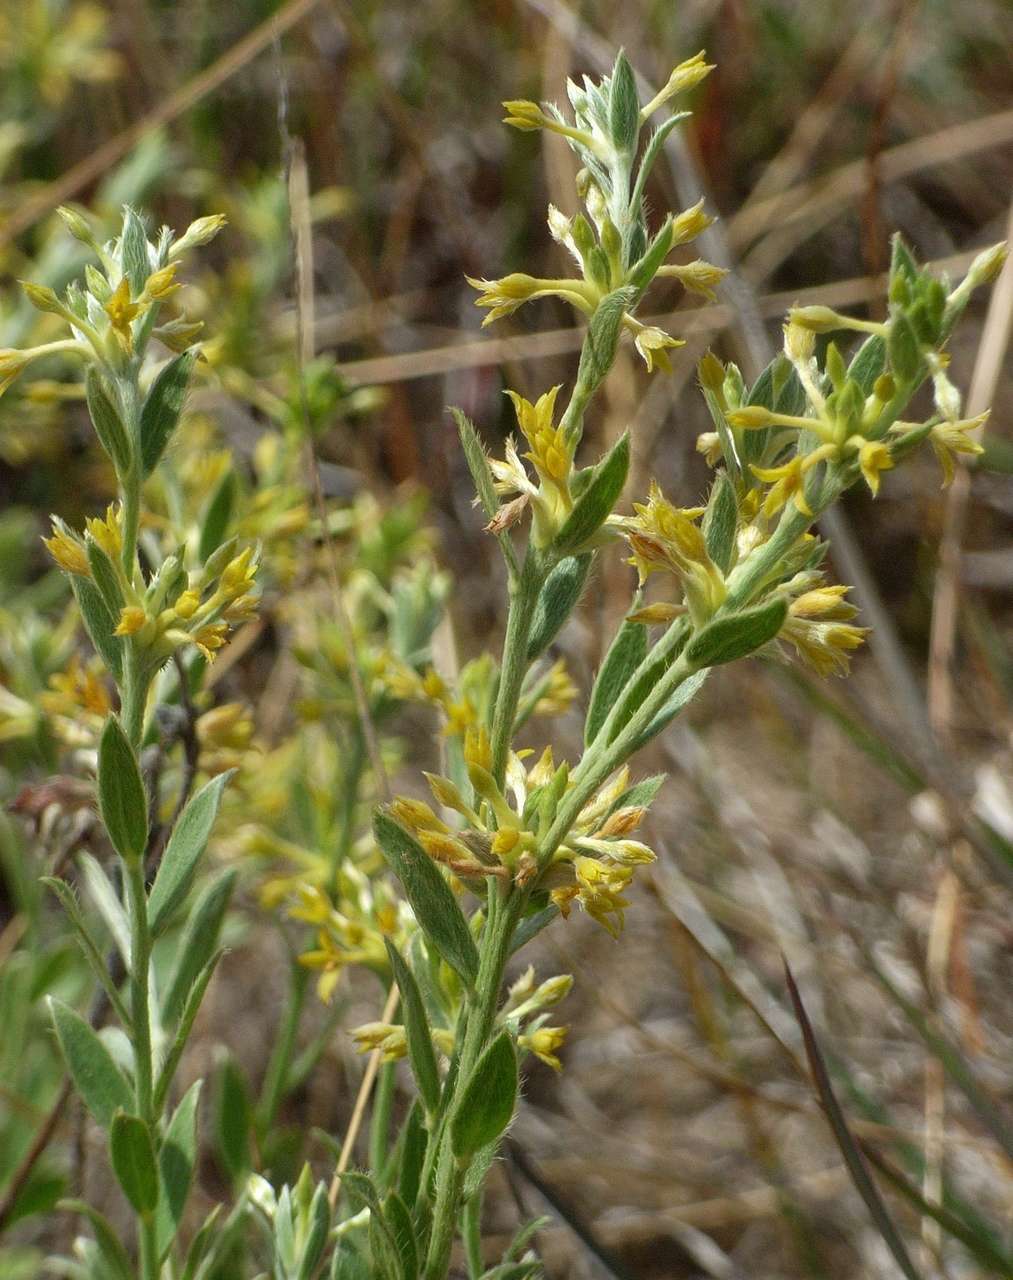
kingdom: Plantae
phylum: Tracheophyta
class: Magnoliopsida
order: Malvales
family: Thymelaeaceae
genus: Pimelea
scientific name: Pimelea curviflora
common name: Curved riceflower
